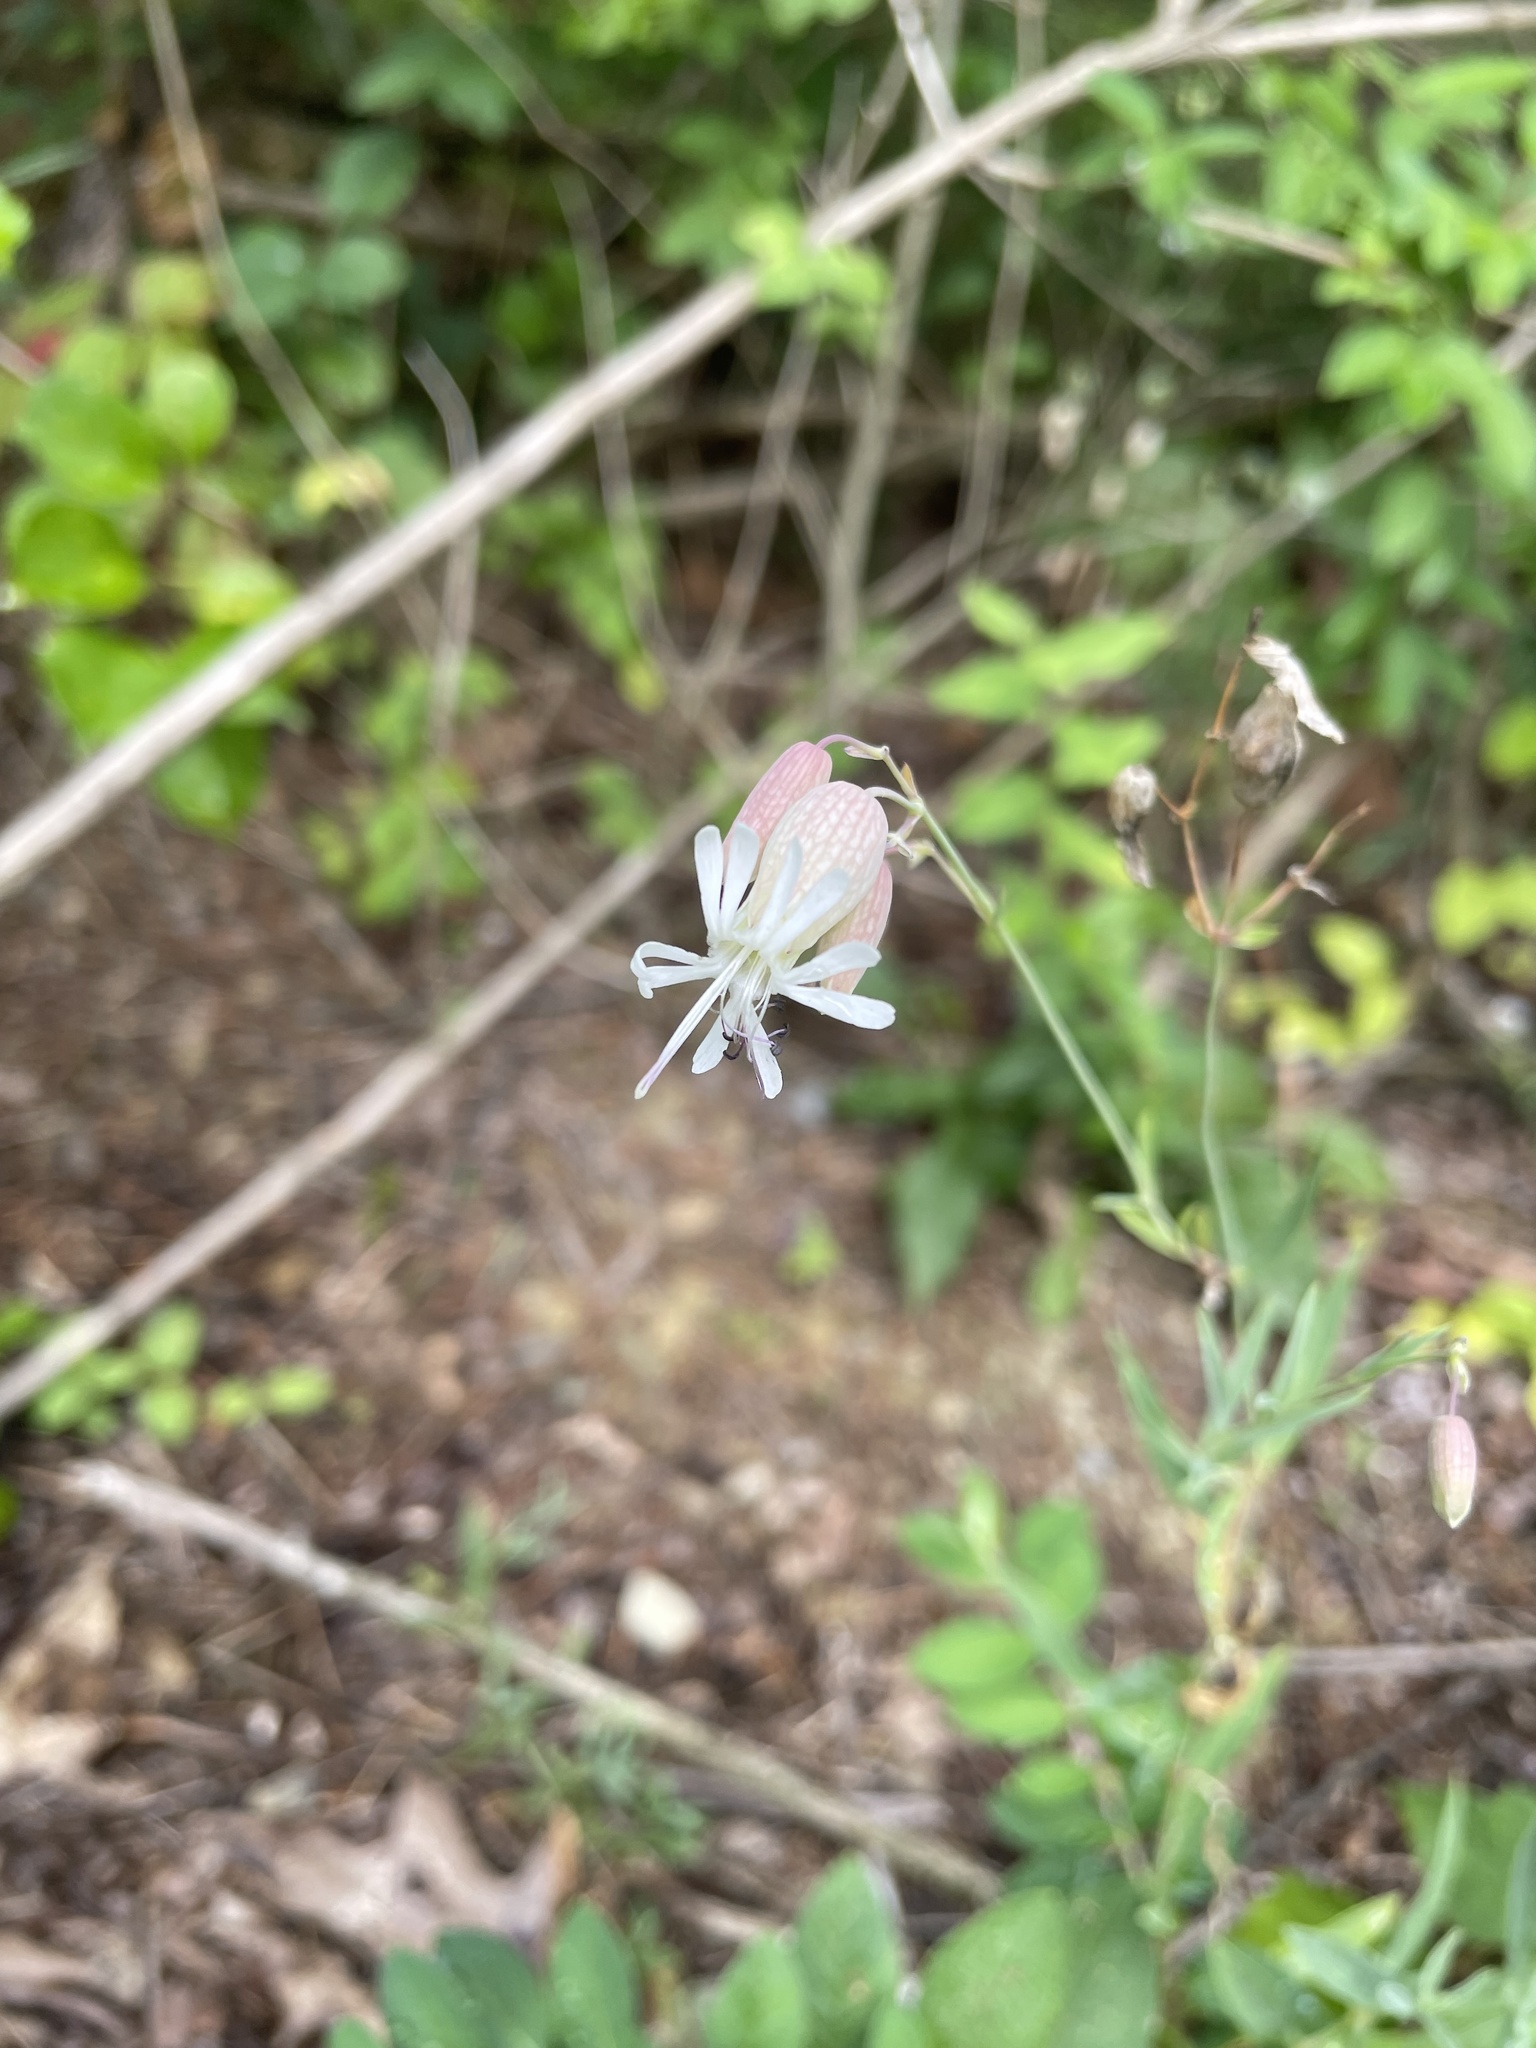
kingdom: Plantae
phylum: Tracheophyta
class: Magnoliopsida
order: Caryophyllales
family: Caryophyllaceae
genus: Silene
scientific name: Silene vulgaris
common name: Bladder campion
